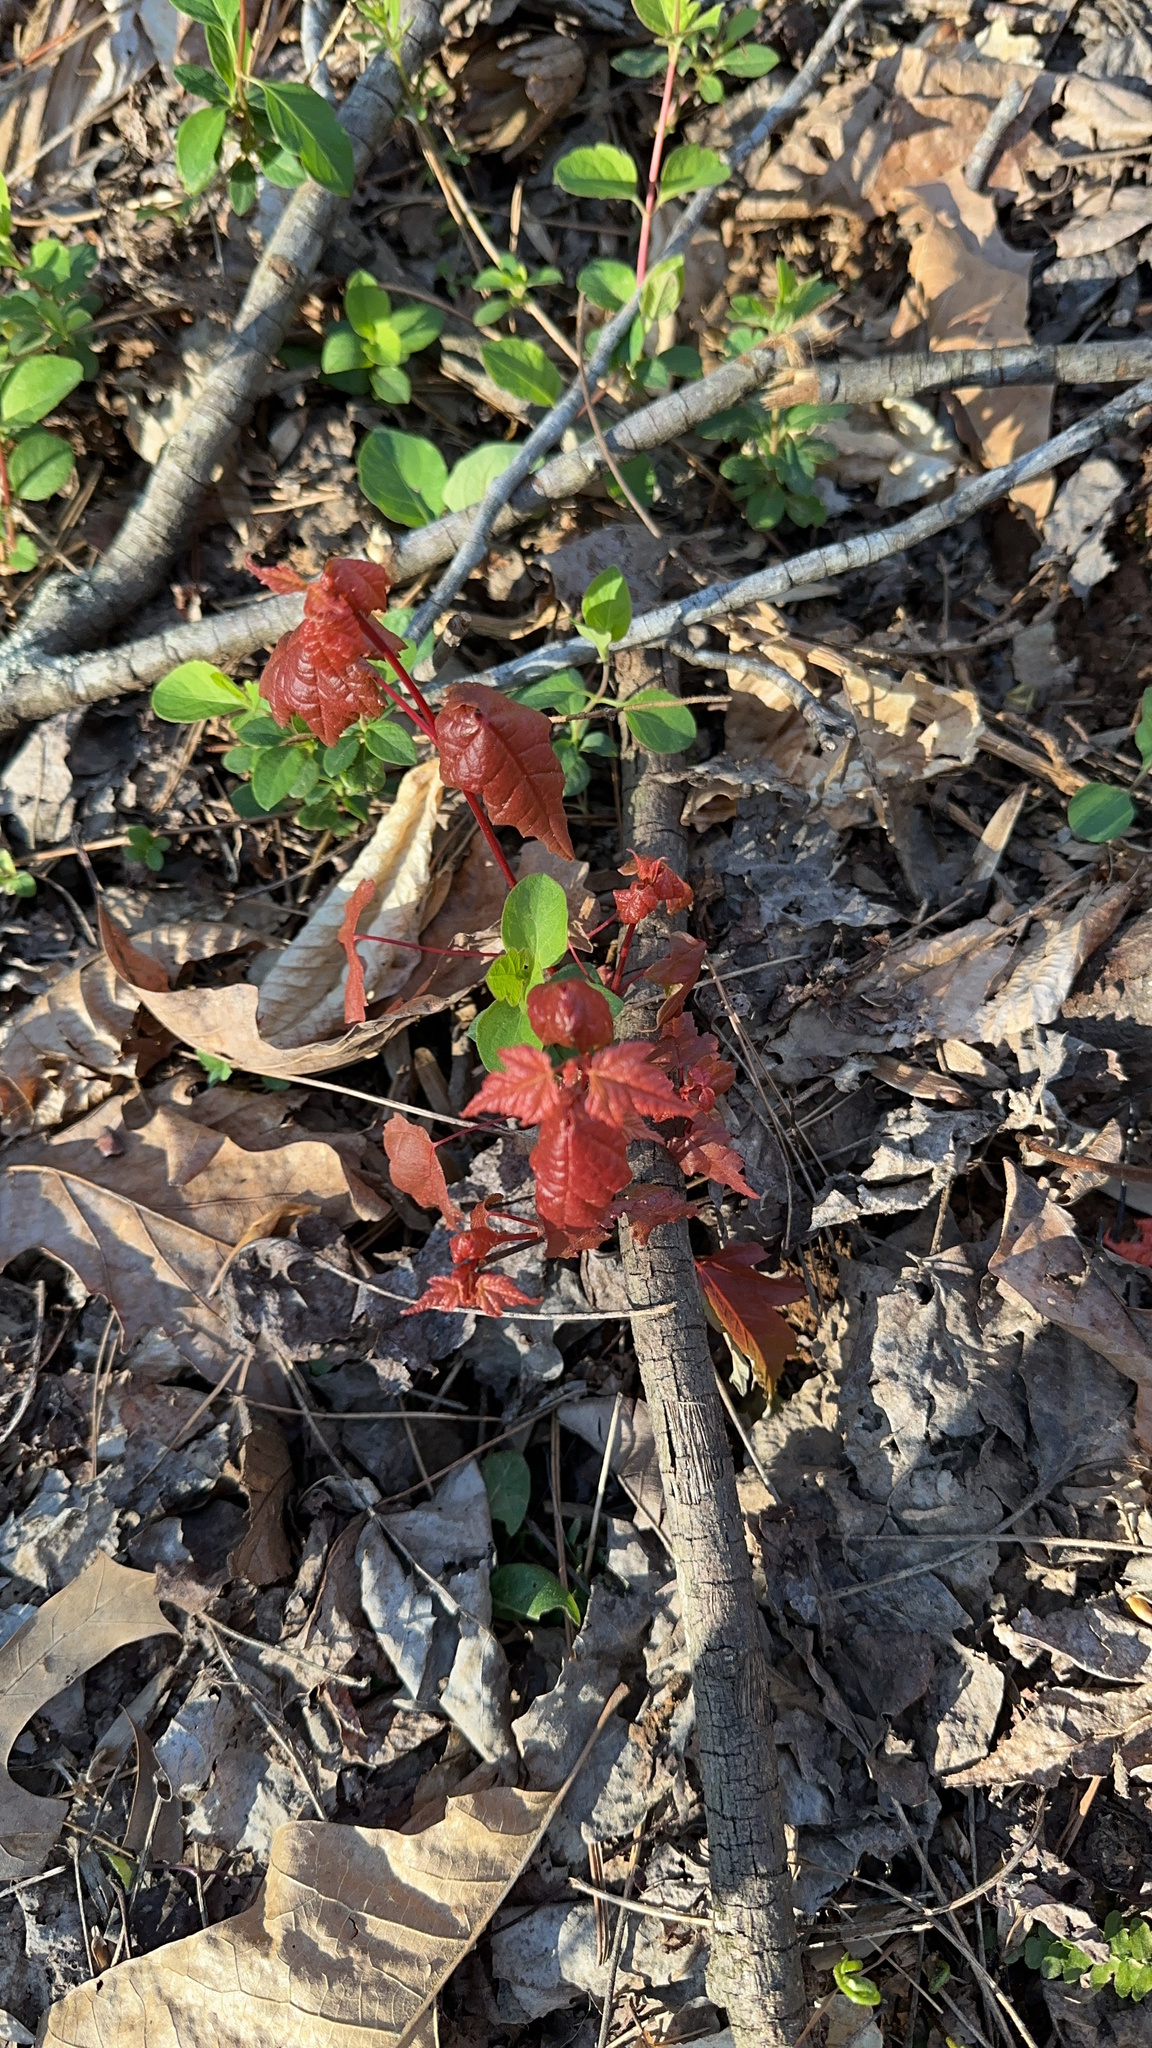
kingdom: Plantae
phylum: Tracheophyta
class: Magnoliopsida
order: Sapindales
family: Sapindaceae
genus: Acer
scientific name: Acer rubrum
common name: Red maple
